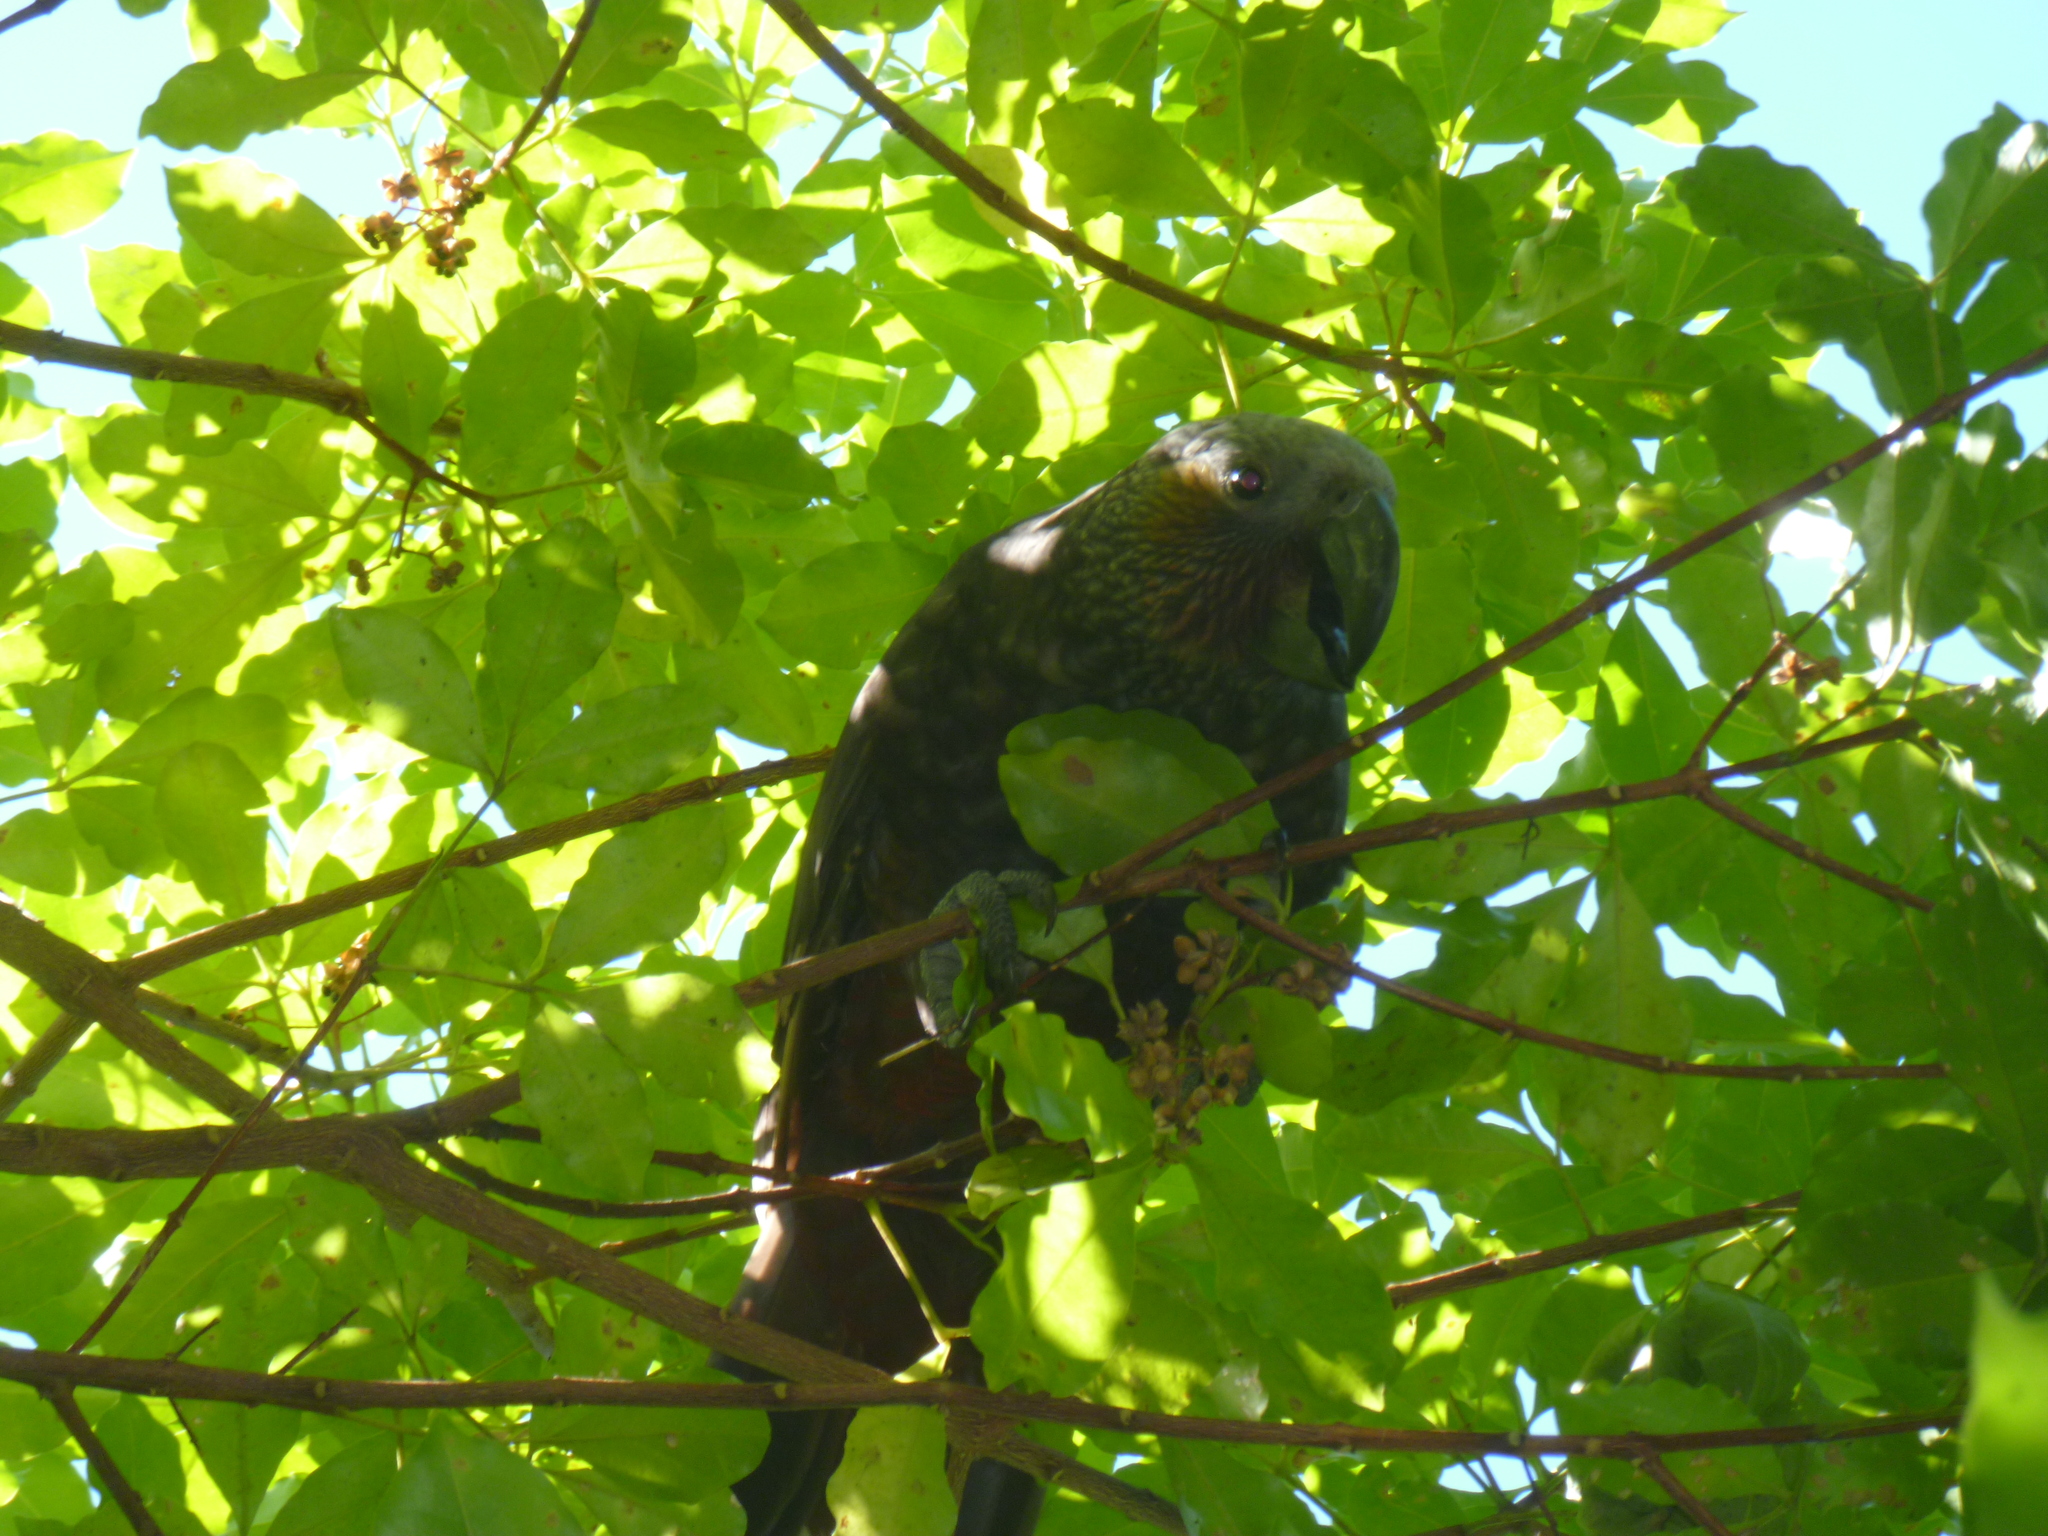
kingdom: Animalia
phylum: Chordata
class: Aves
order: Psittaciformes
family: Psittacidae
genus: Nestor
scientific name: Nestor meridionalis
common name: New zealand kaka
